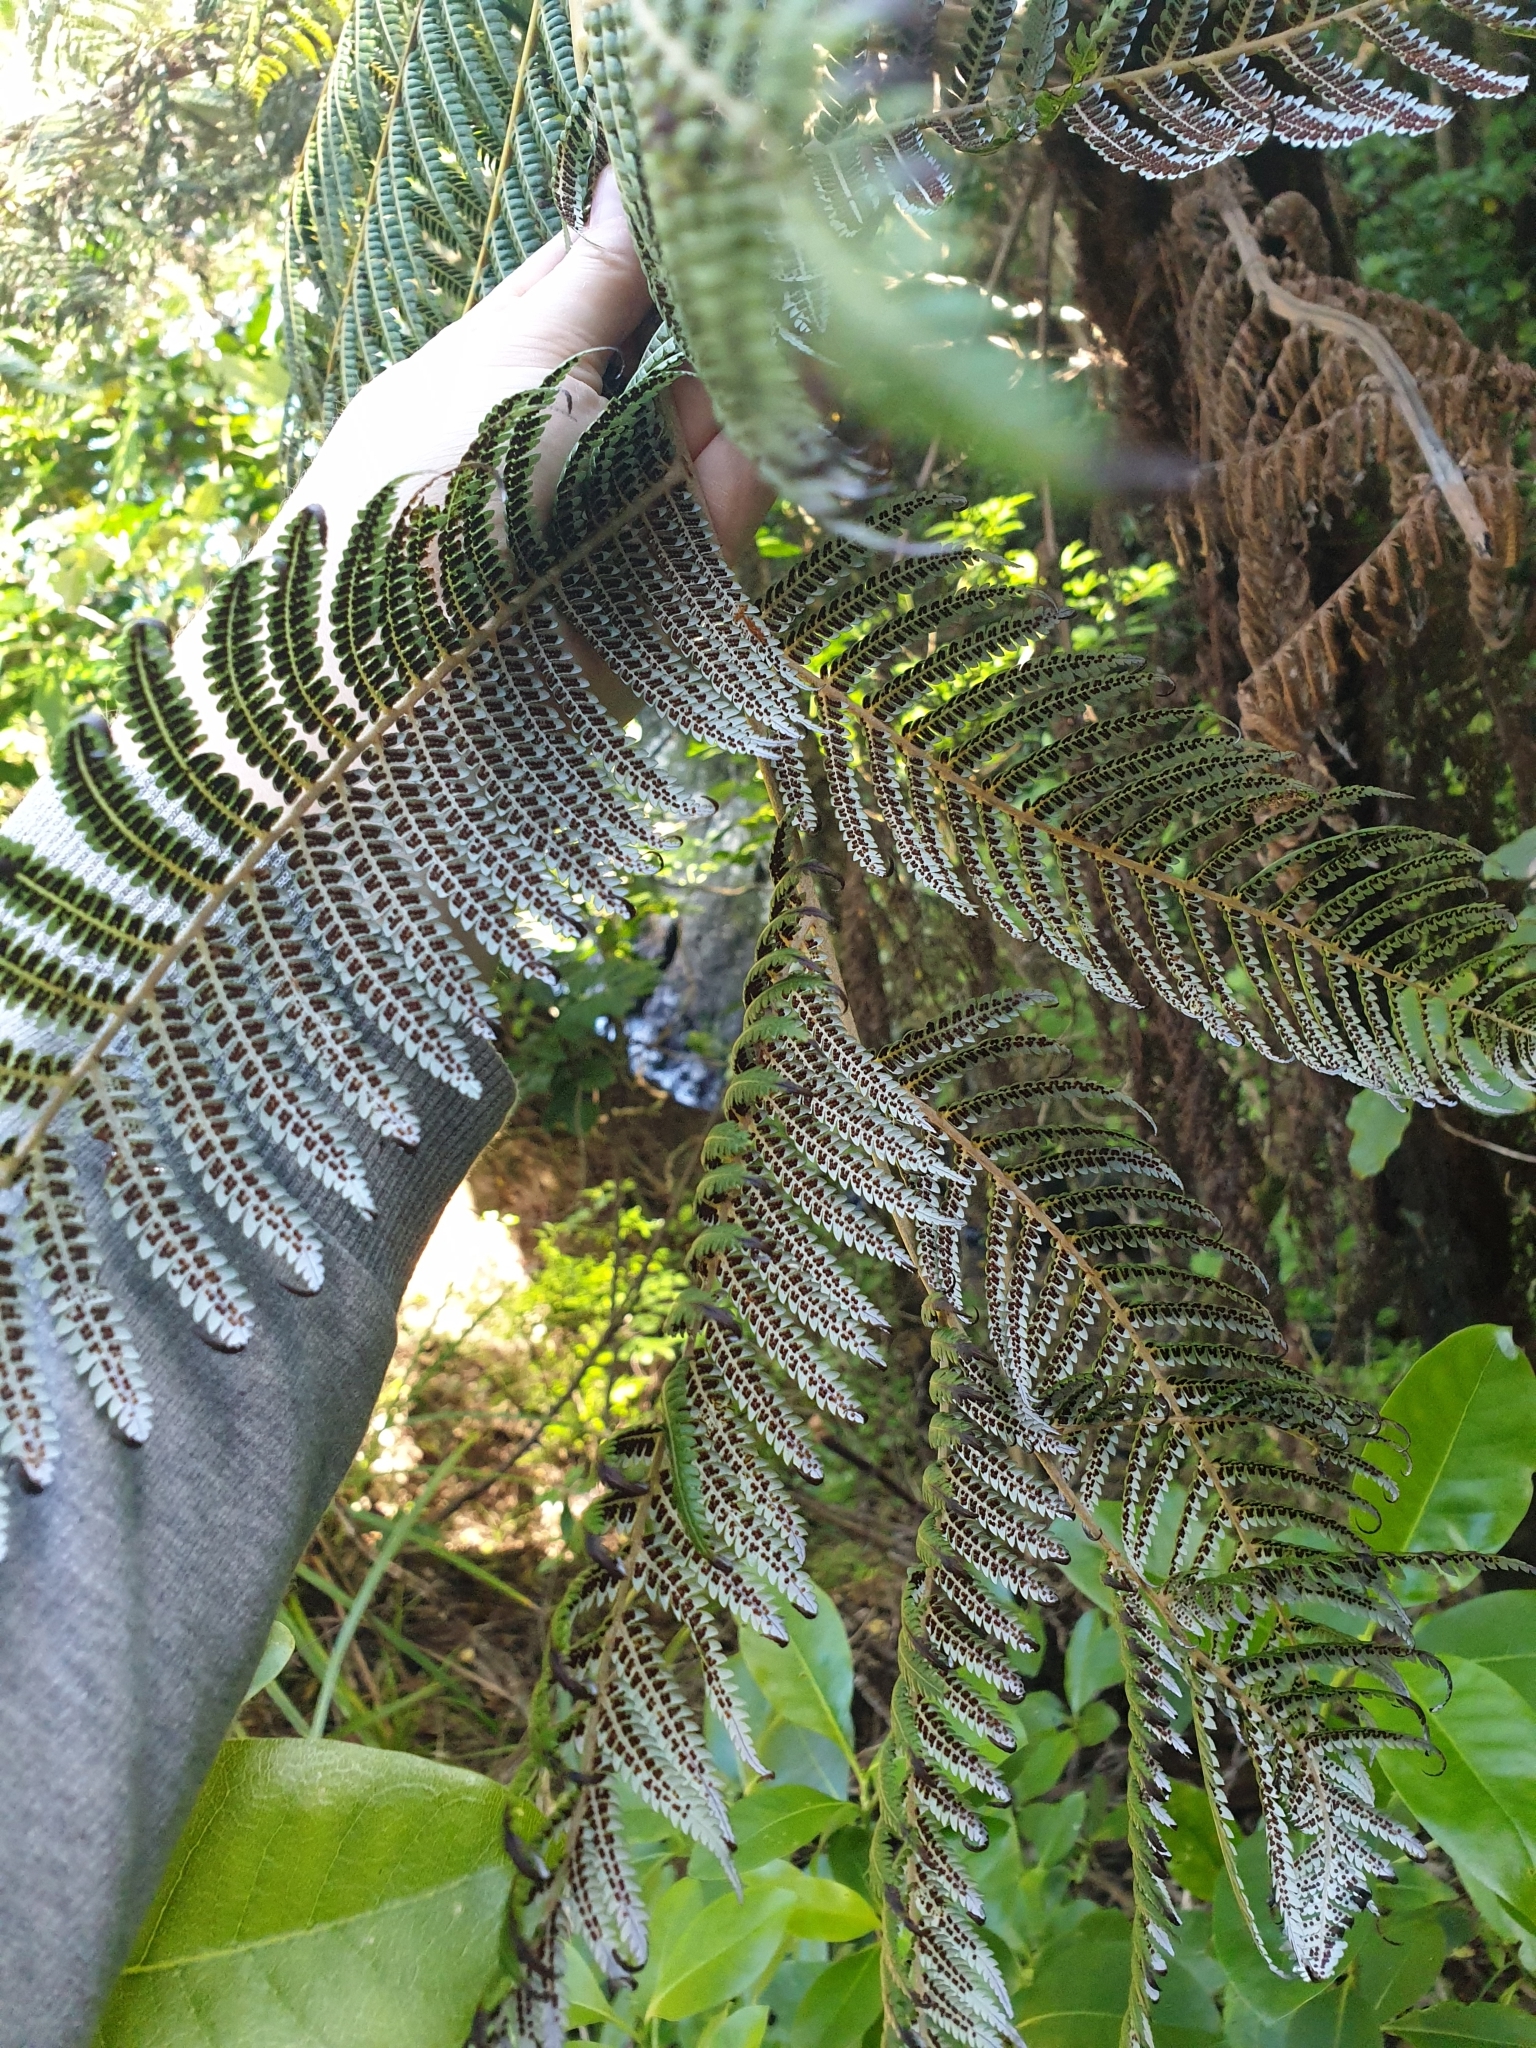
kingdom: Plantae
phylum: Tracheophyta
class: Polypodiopsida
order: Cyatheales
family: Cyatheaceae
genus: Alsophila
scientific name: Alsophila dealbata
